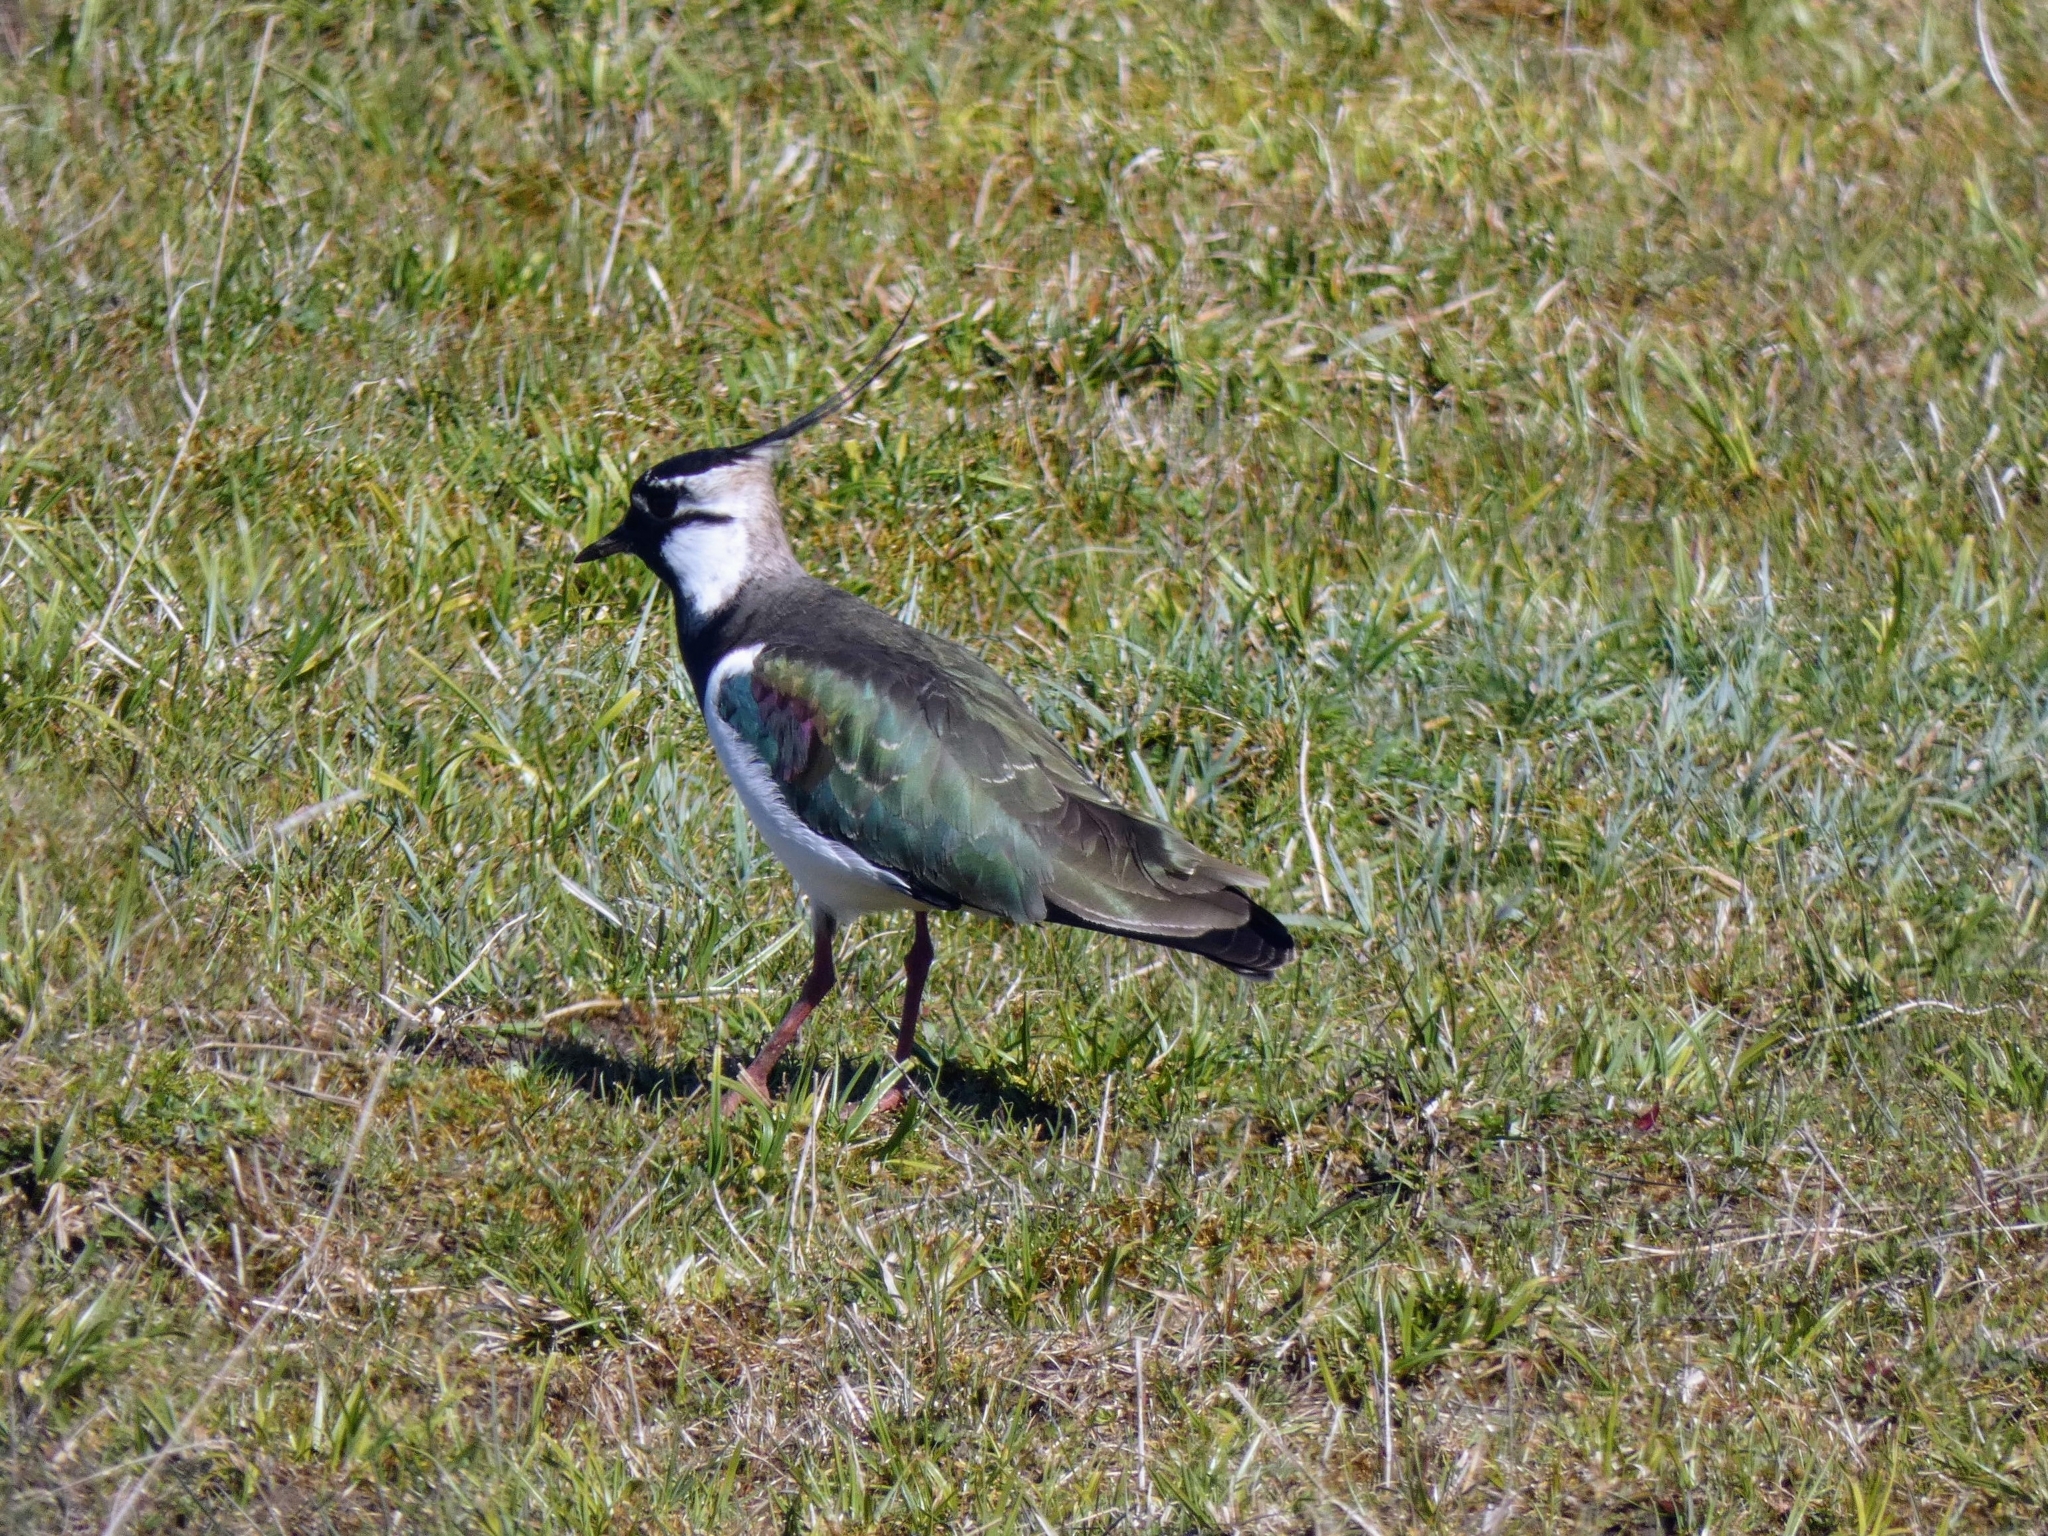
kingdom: Animalia
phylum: Chordata
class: Aves
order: Charadriiformes
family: Charadriidae
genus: Vanellus
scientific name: Vanellus vanellus
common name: Northern lapwing
